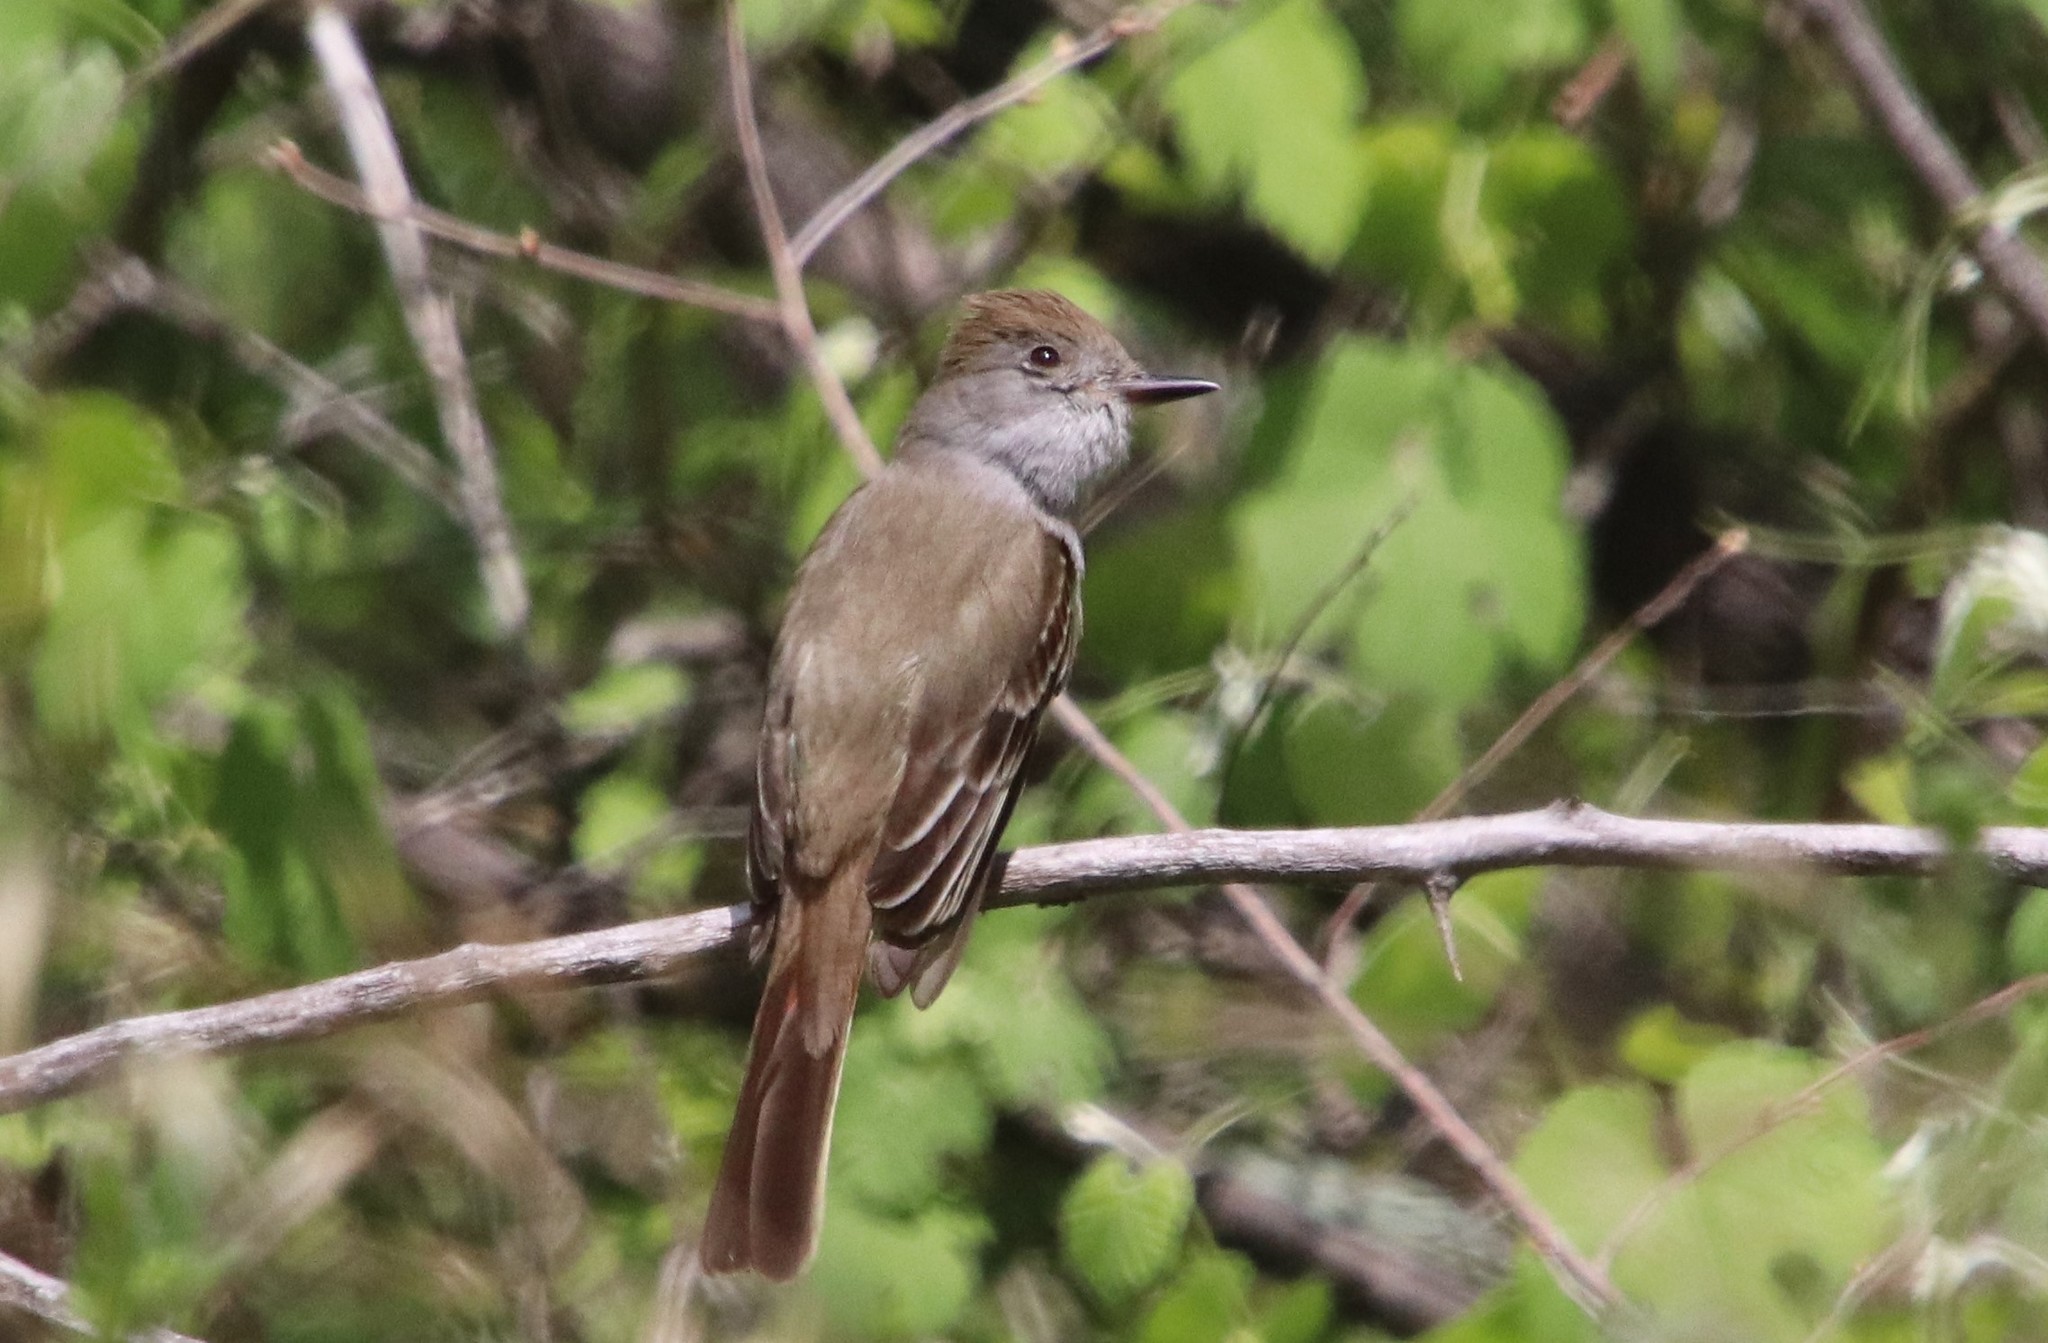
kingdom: Animalia
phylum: Chordata
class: Aves
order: Passeriformes
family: Tyrannidae
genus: Myiarchus
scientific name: Myiarchus cinerascens
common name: Ash-throated flycatcher
